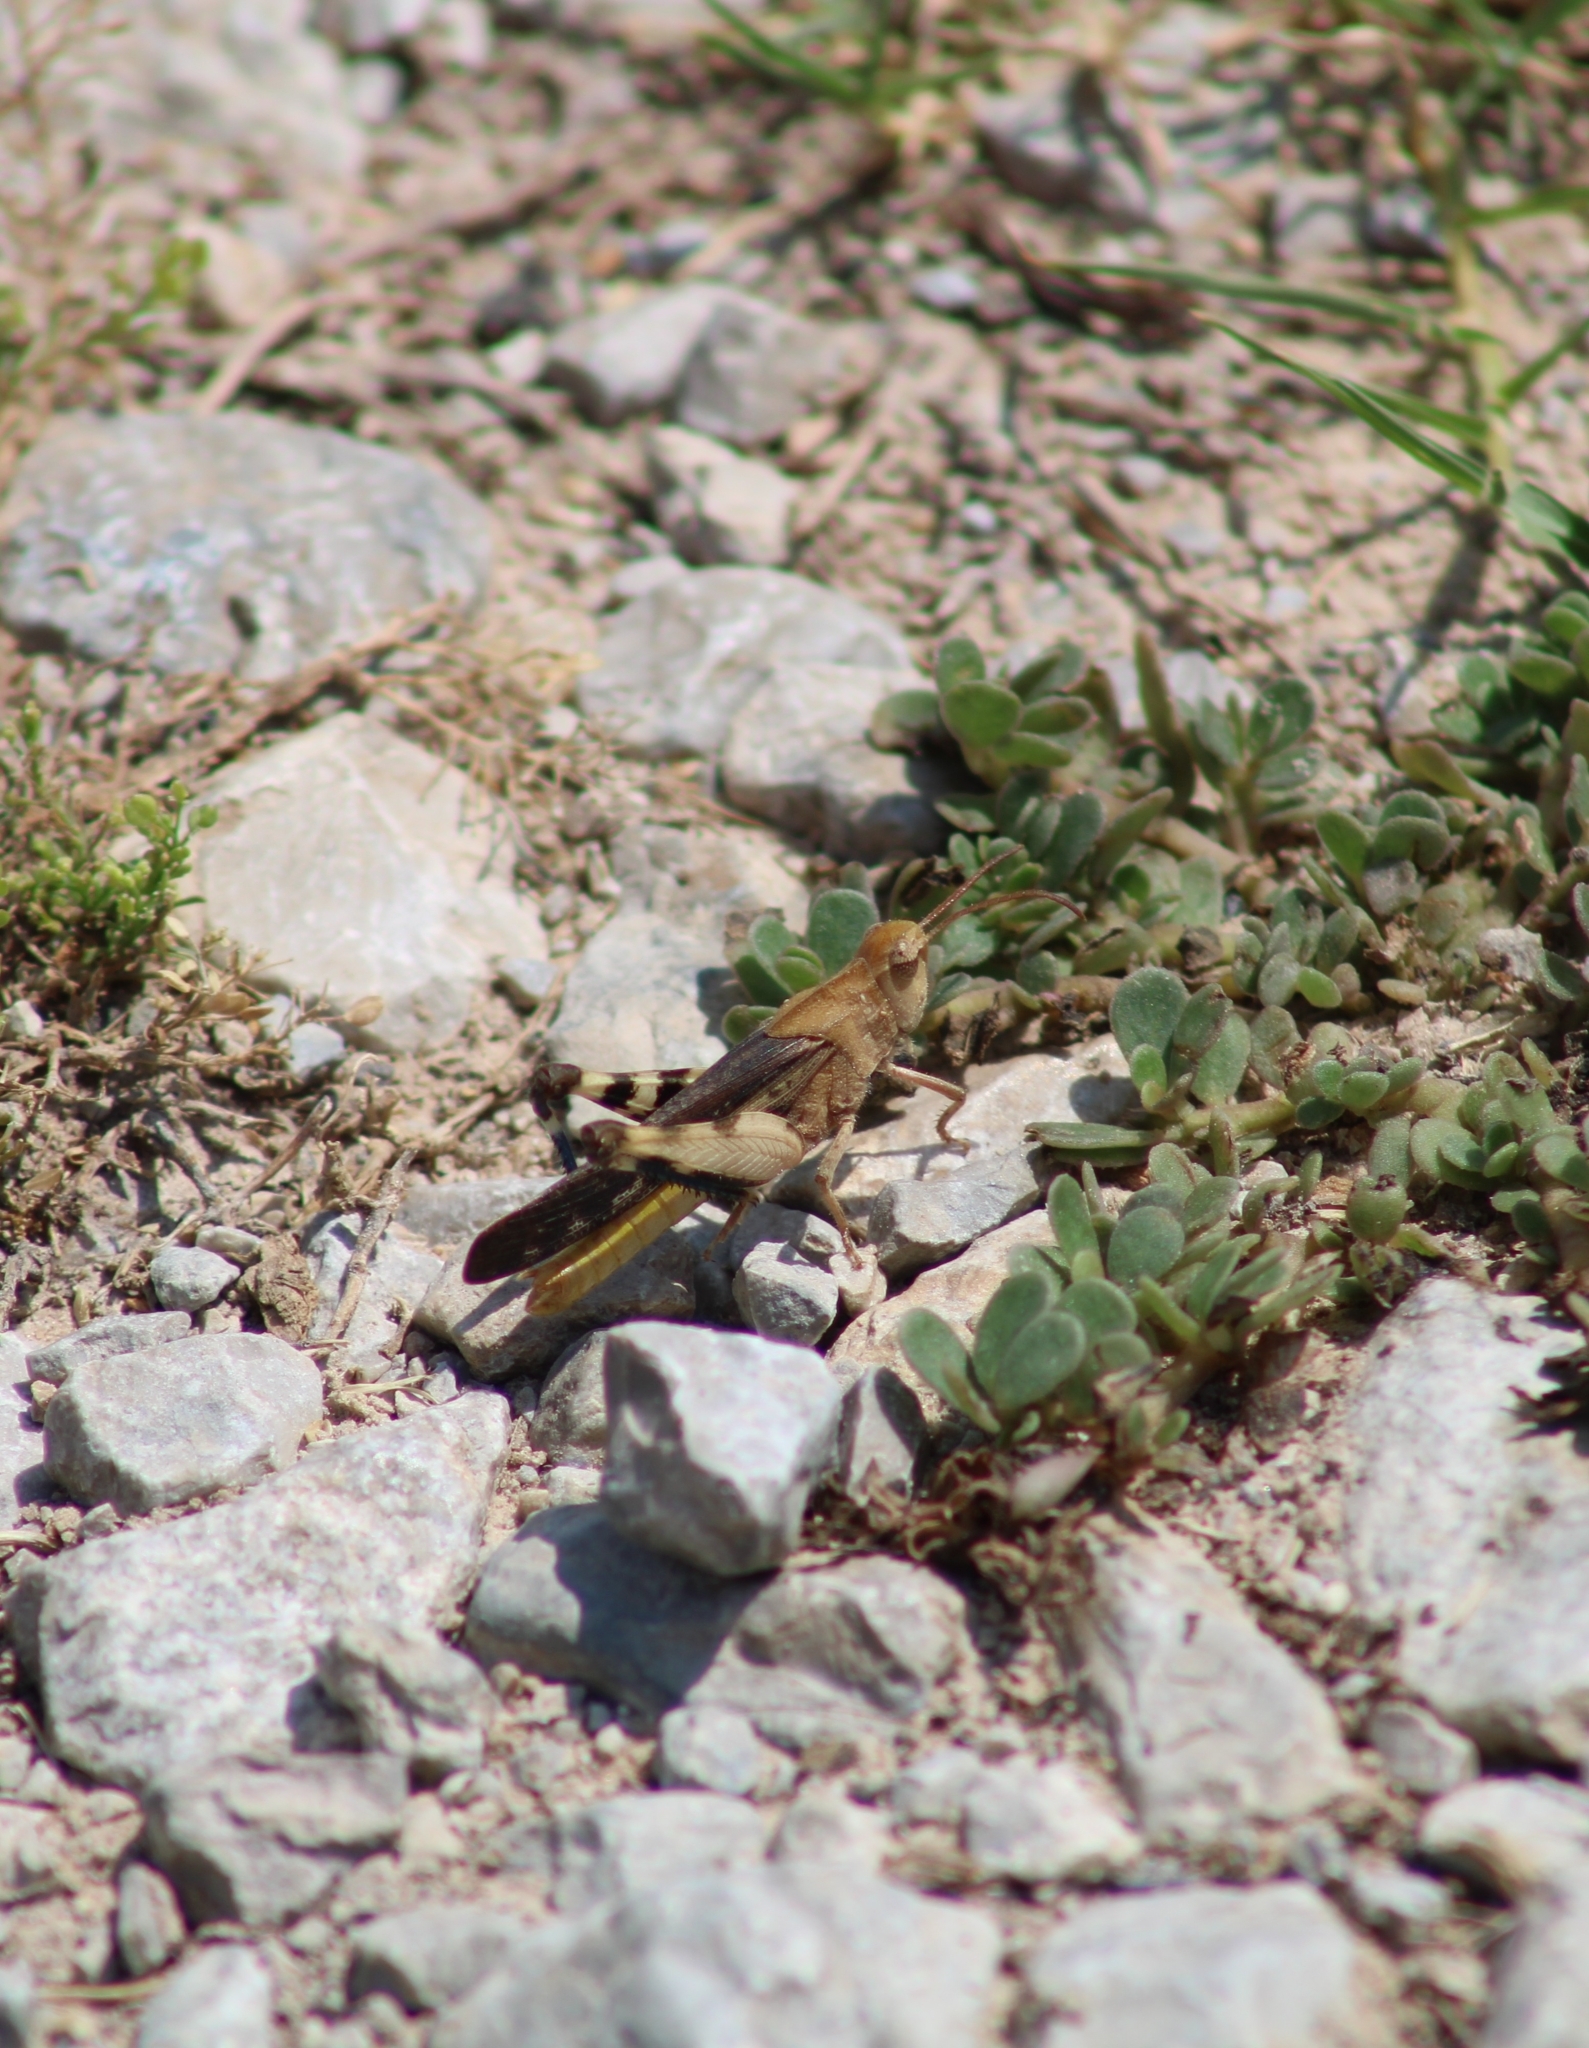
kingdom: Animalia
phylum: Arthropoda
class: Insecta
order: Orthoptera
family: Acrididae
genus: Chortophaga
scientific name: Chortophaga viridifasciata
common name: Green-striped grasshopper
